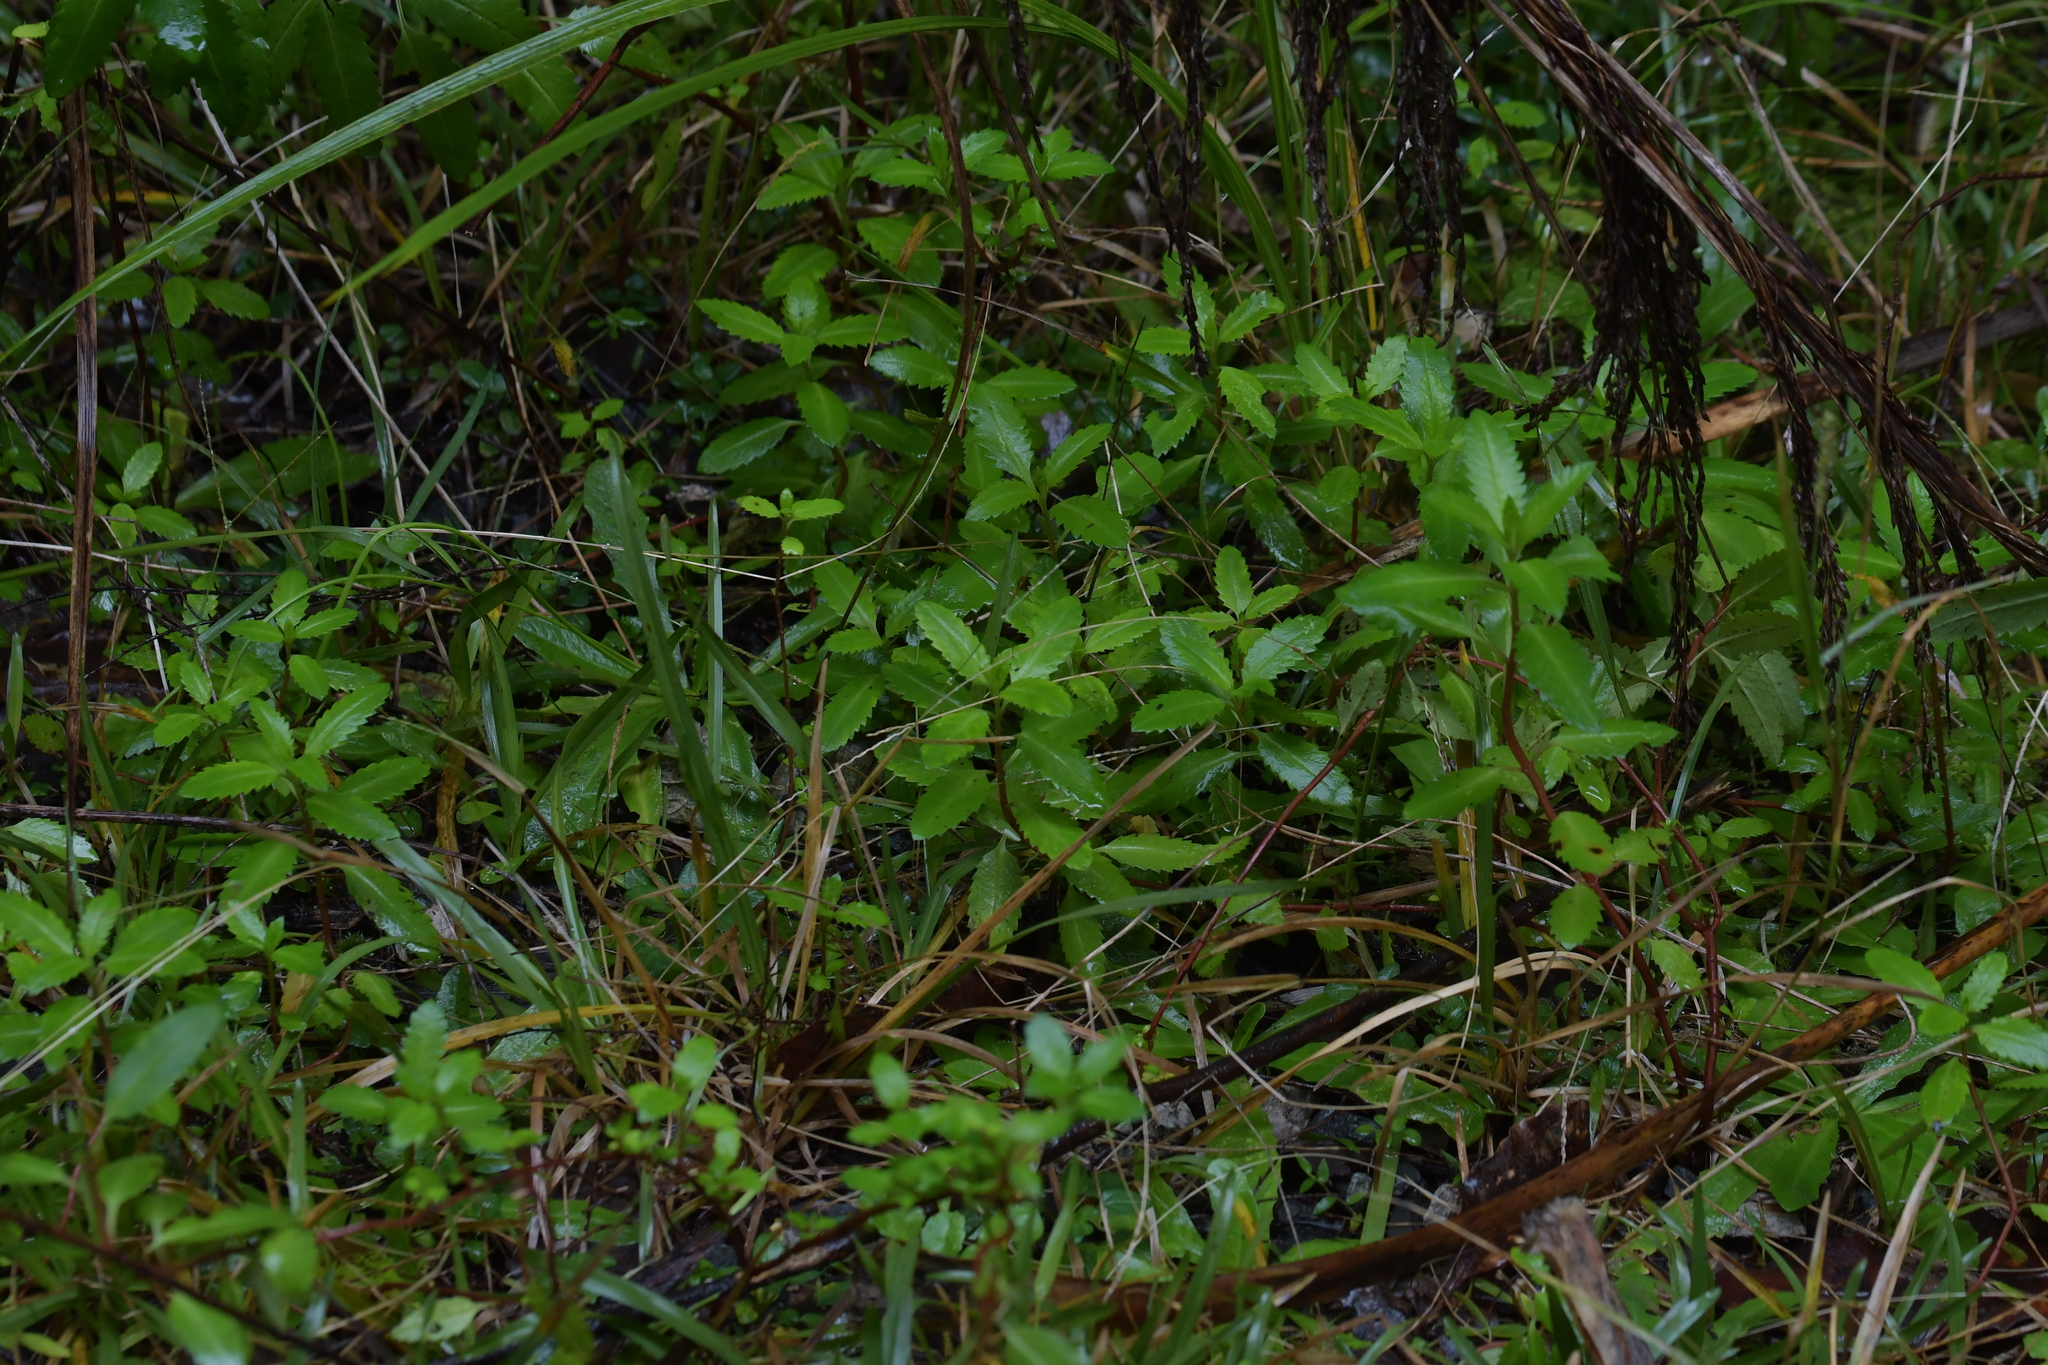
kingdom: Plantae
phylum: Tracheophyta
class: Magnoliopsida
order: Saxifragales
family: Haloragaceae
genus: Haloragis
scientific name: Haloragis erecta
